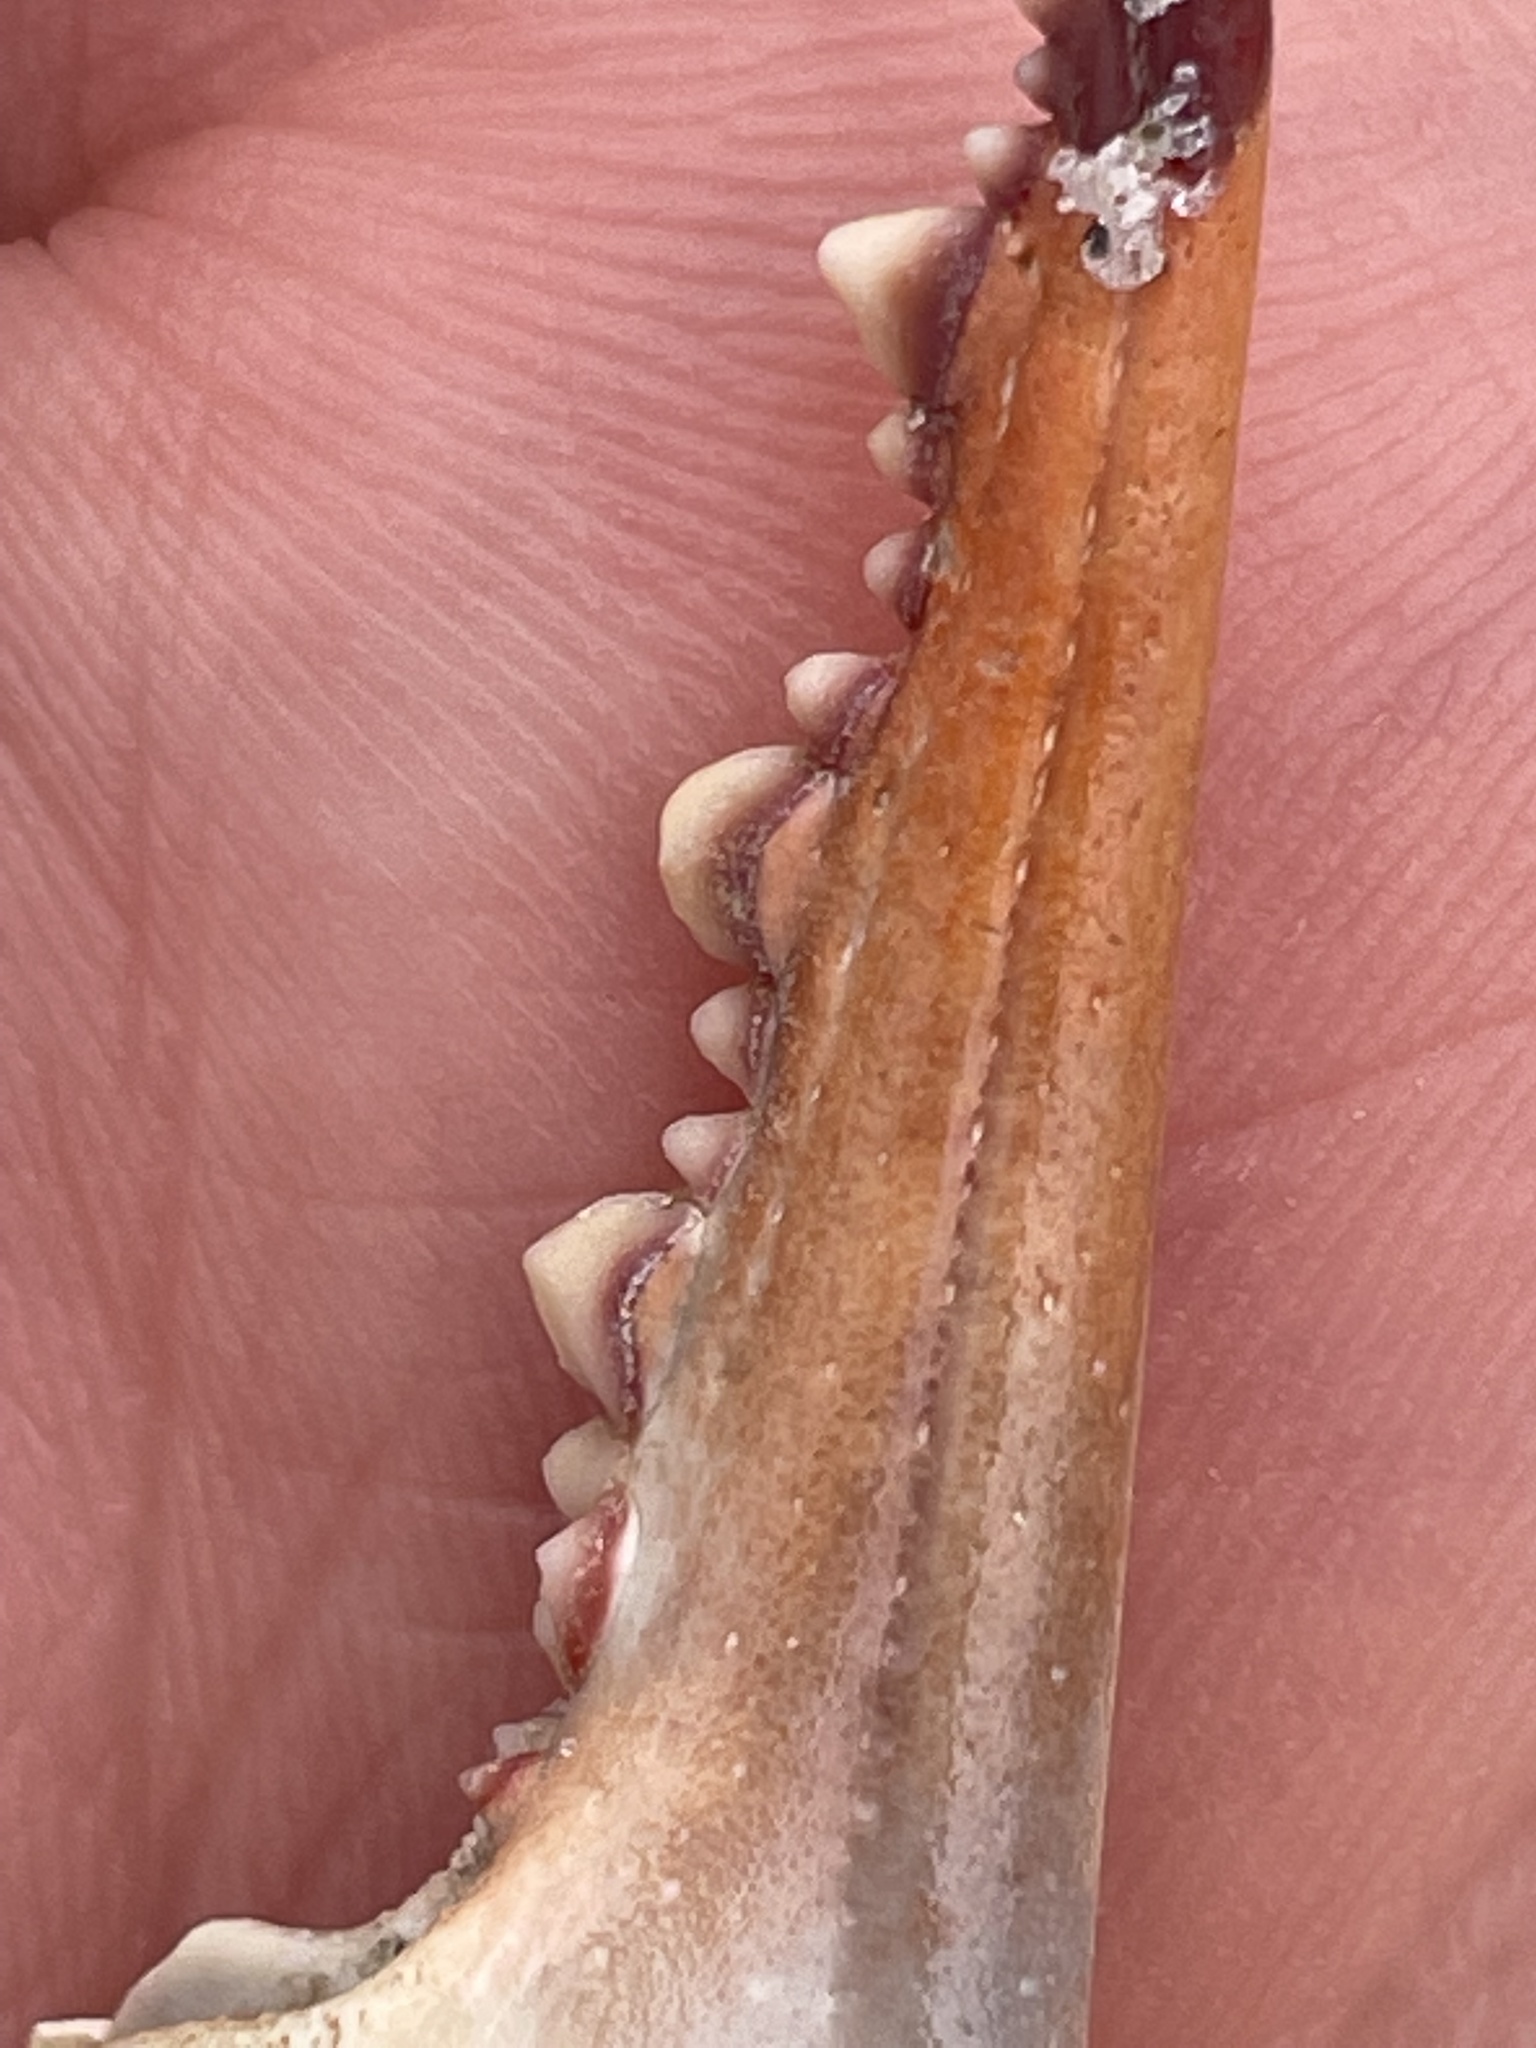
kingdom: Animalia
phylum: Arthropoda
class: Malacostraca
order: Decapoda
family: Portunidae
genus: Callinectes
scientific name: Callinectes sapidus
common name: Blue crab
